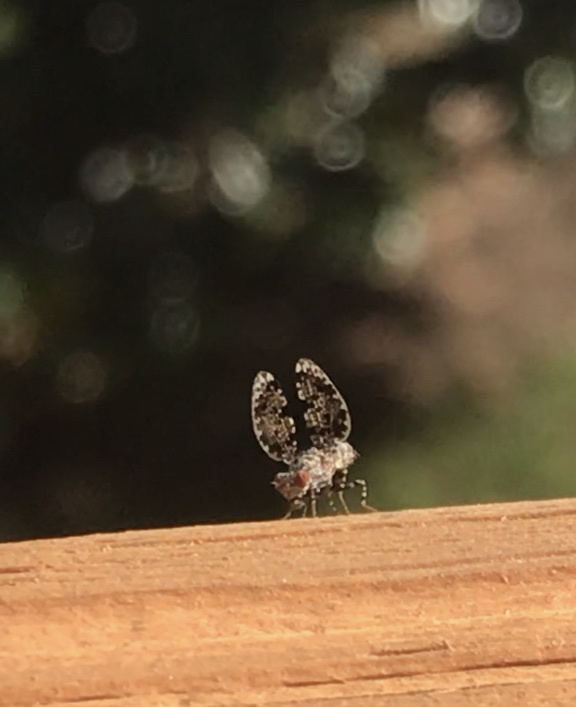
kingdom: Animalia
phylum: Arthropoda
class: Insecta
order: Diptera
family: Ulidiidae
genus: Callopistromyia
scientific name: Callopistromyia annulipes
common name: Peacock fly
